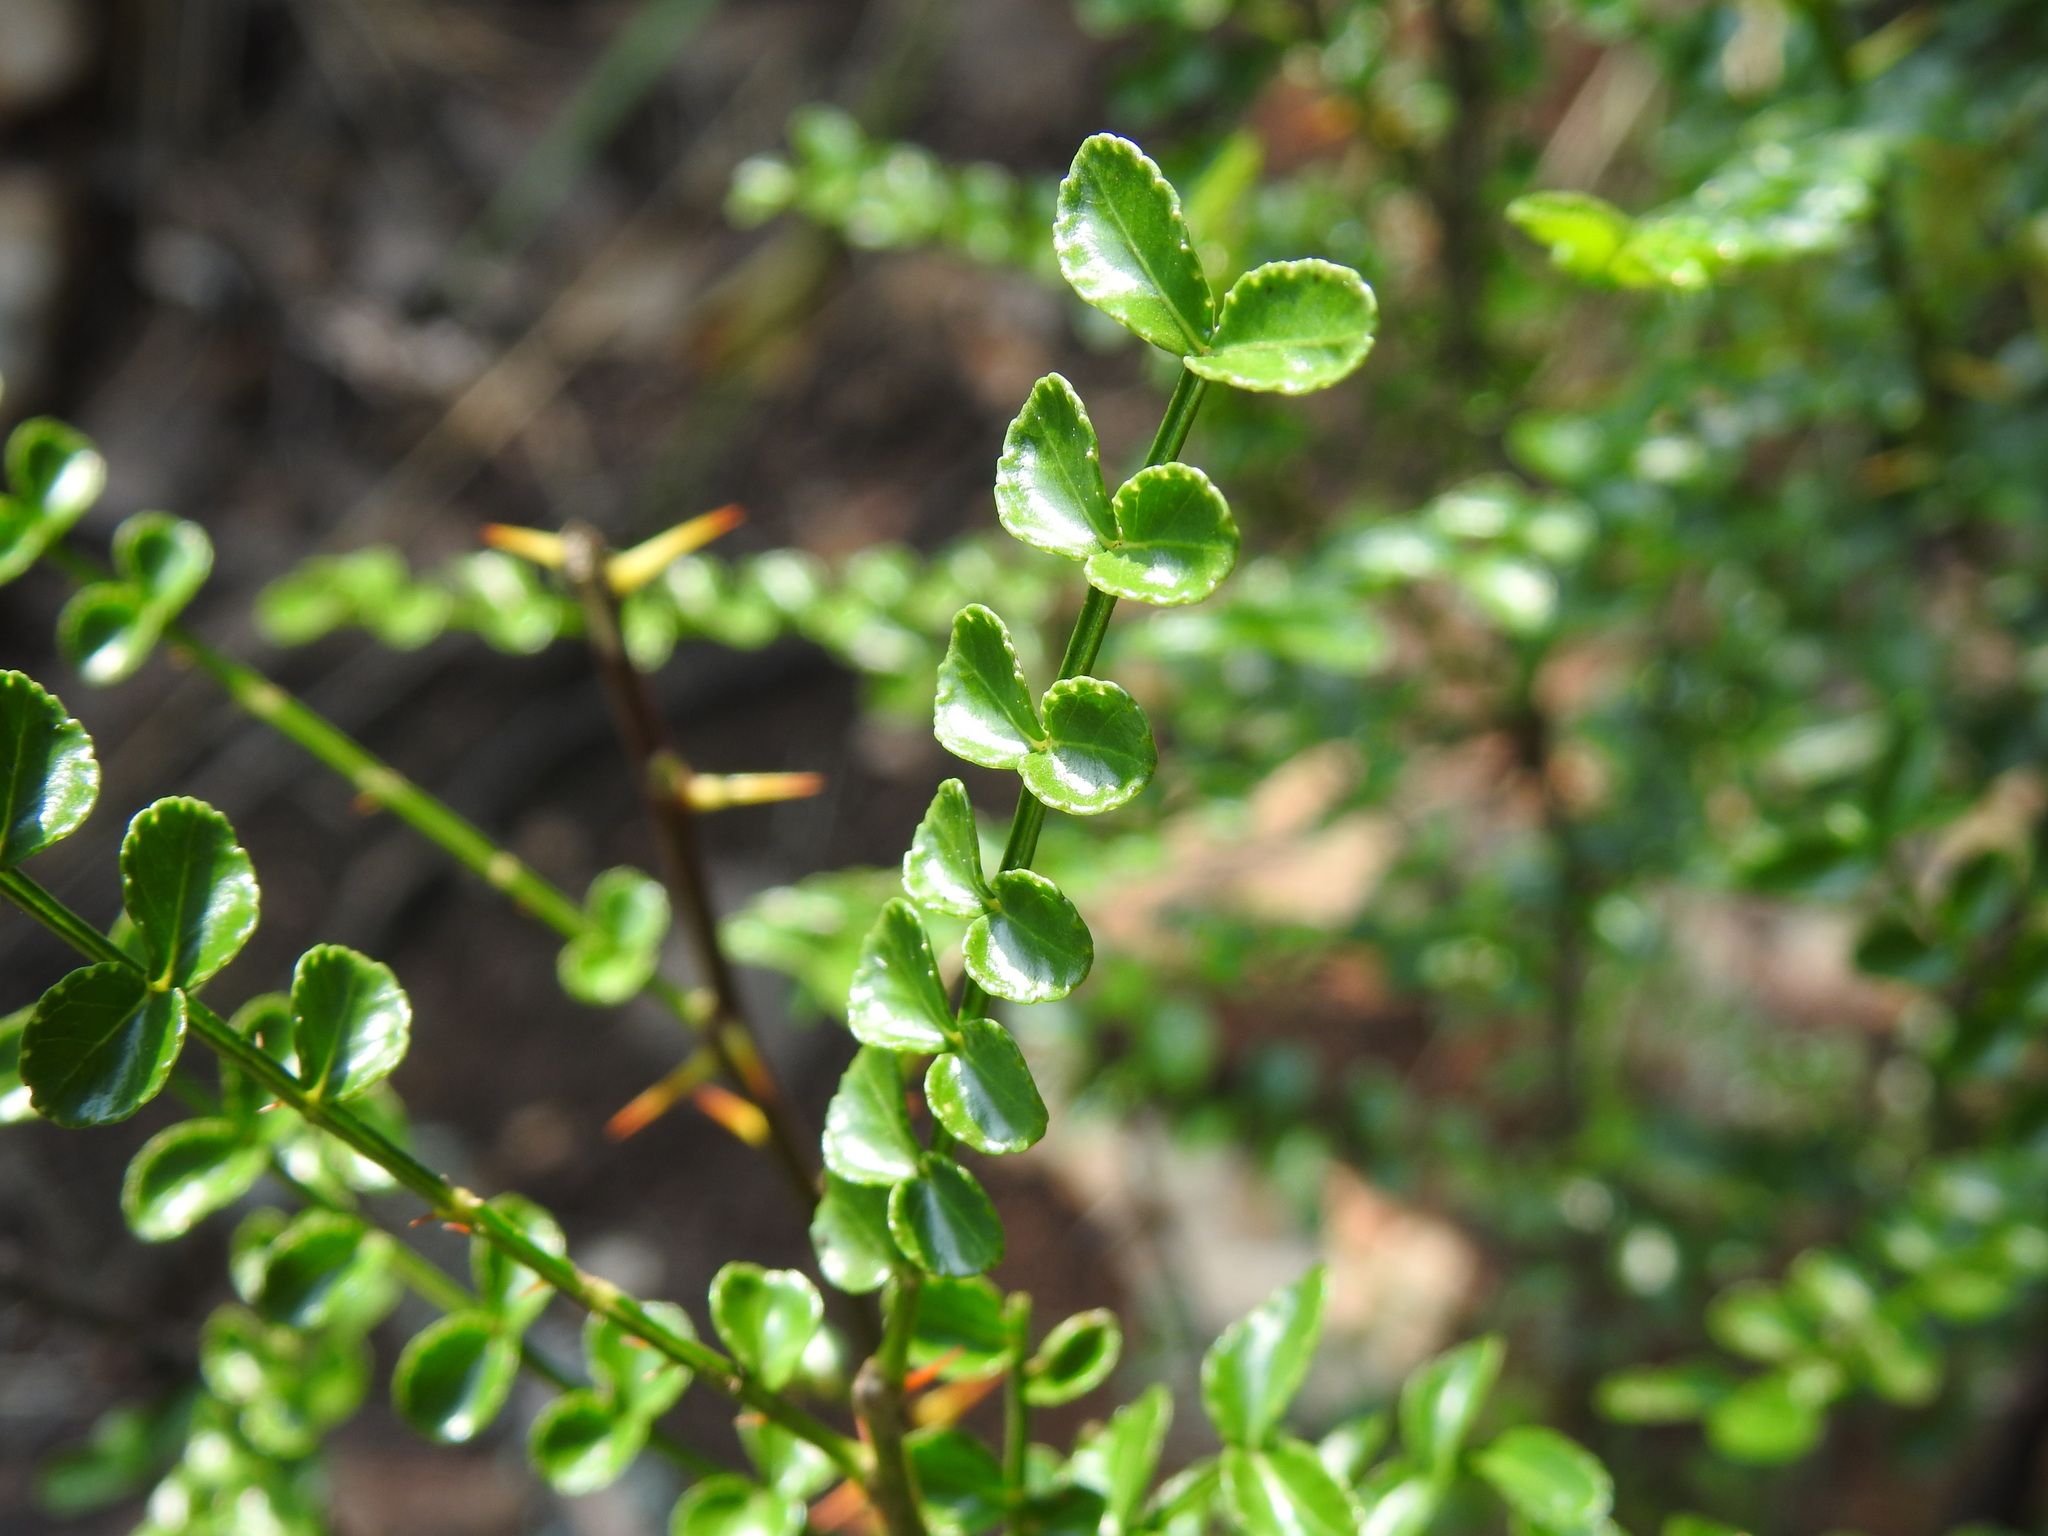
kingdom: Plantae
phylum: Tracheophyta
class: Magnoliopsida
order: Sapindales
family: Rutaceae
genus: Zanthoxylum
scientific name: Zanthoxylum capense
